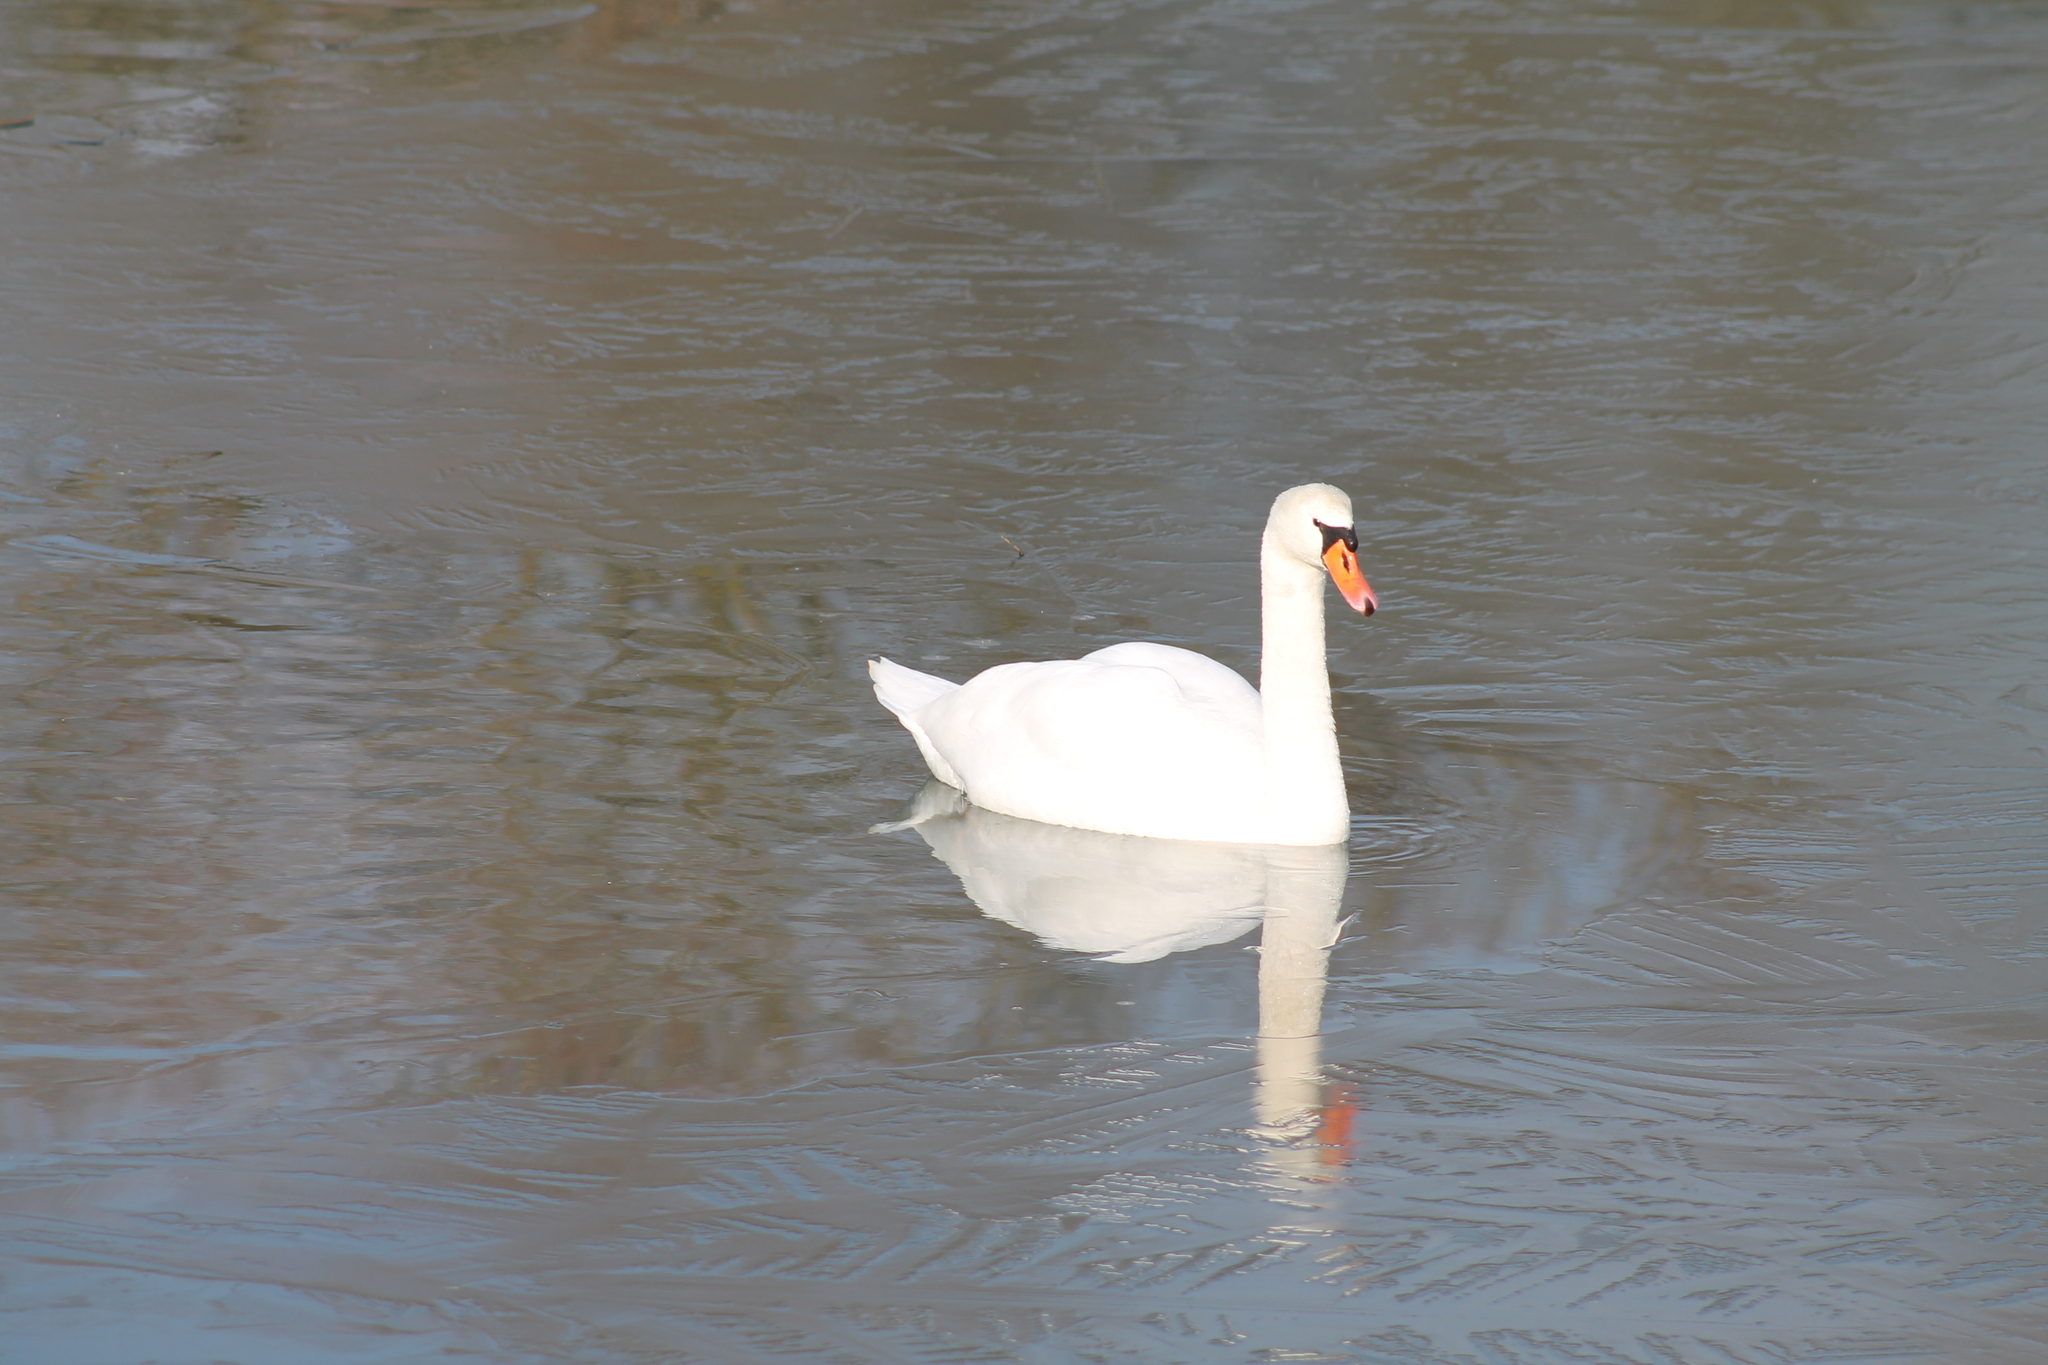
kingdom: Animalia
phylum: Chordata
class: Aves
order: Anseriformes
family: Anatidae
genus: Cygnus
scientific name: Cygnus olor
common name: Mute swan
